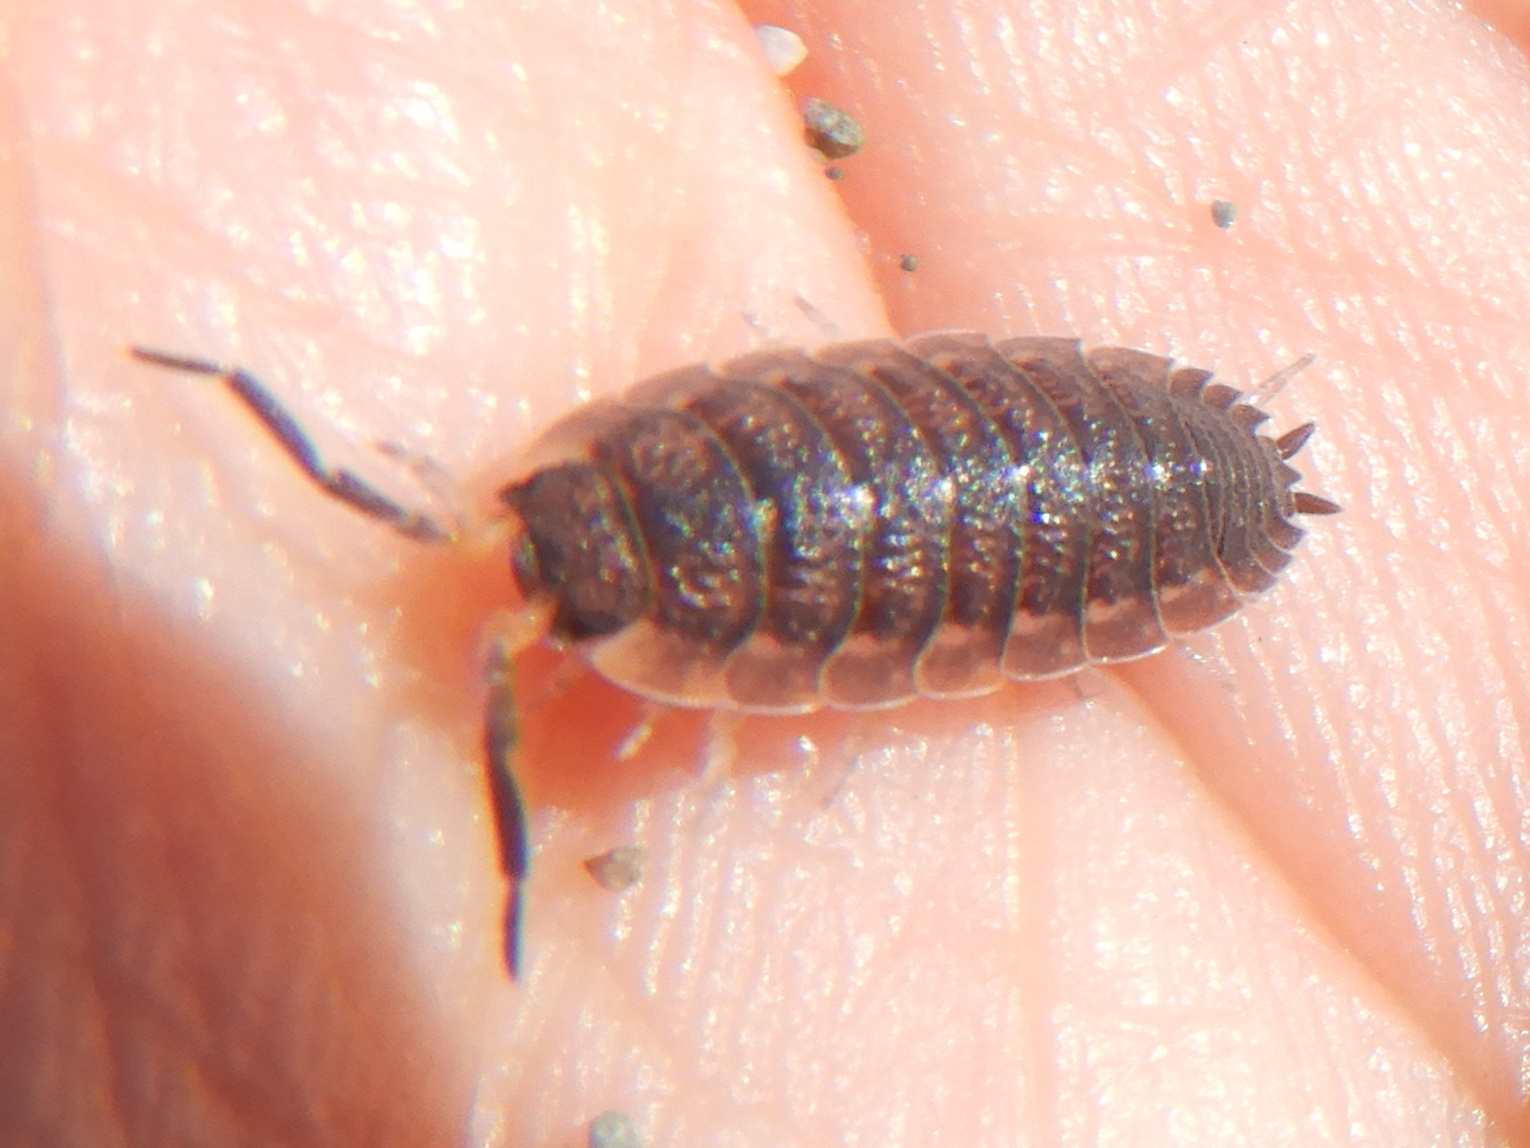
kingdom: Animalia
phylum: Arthropoda
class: Malacostraca
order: Isopoda
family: Porcellionidae
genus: Porcellio
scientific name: Porcellio scaber
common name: Common rough woodlouse
